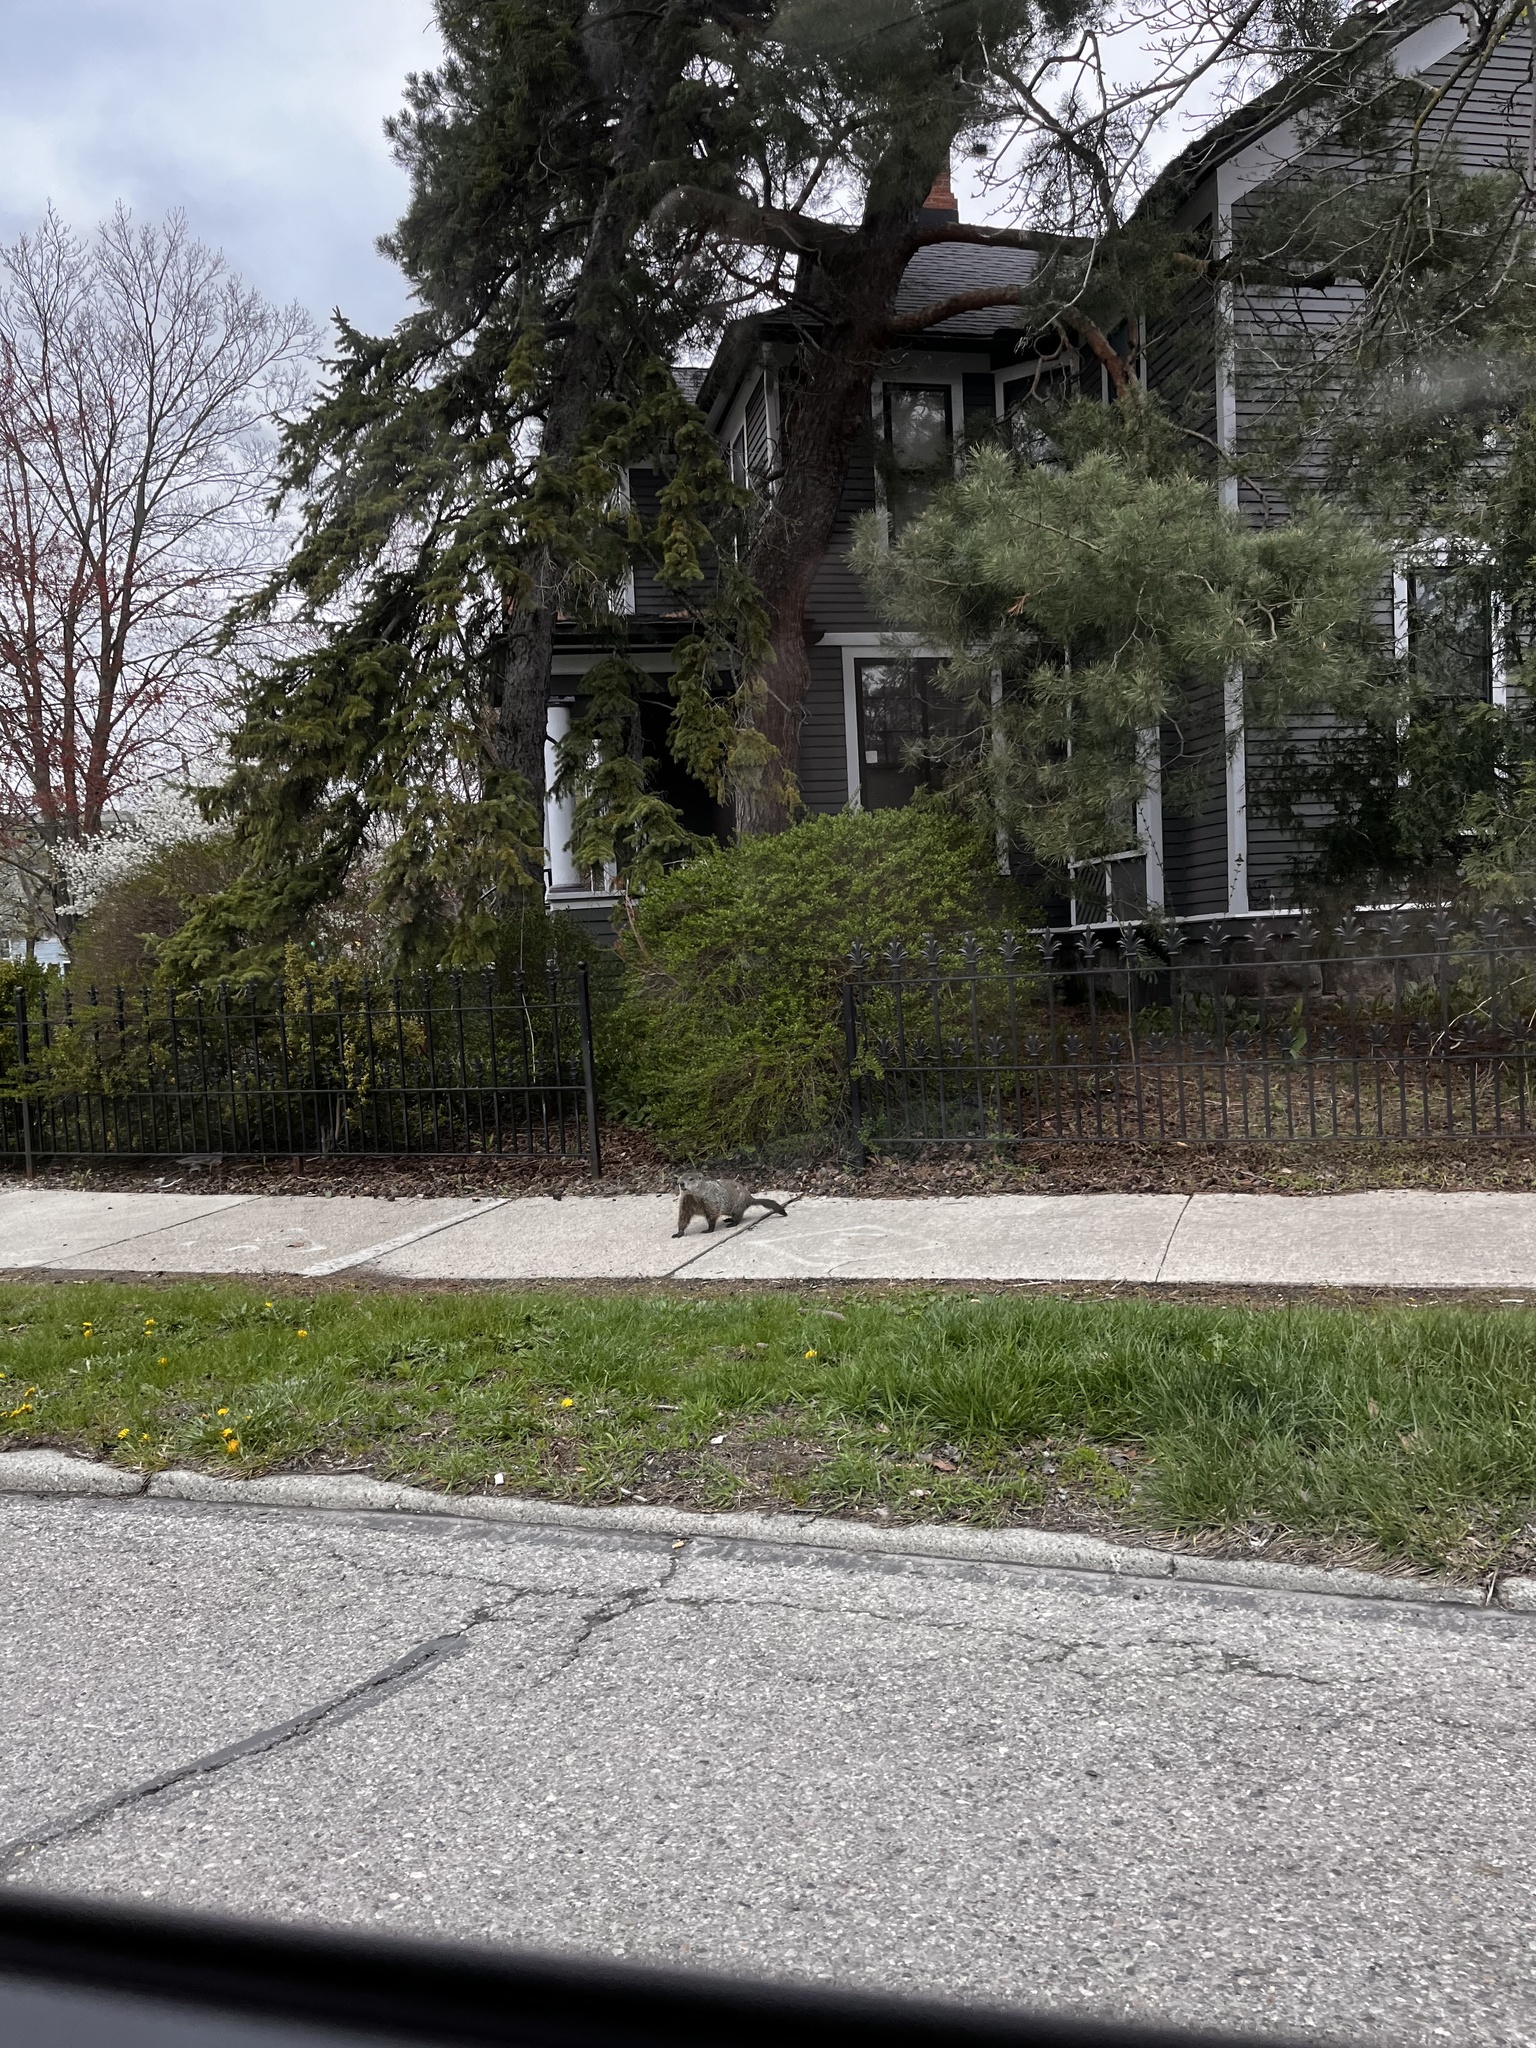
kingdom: Animalia
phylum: Chordata
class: Mammalia
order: Rodentia
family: Sciuridae
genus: Marmota
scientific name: Marmota monax
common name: Groundhog
